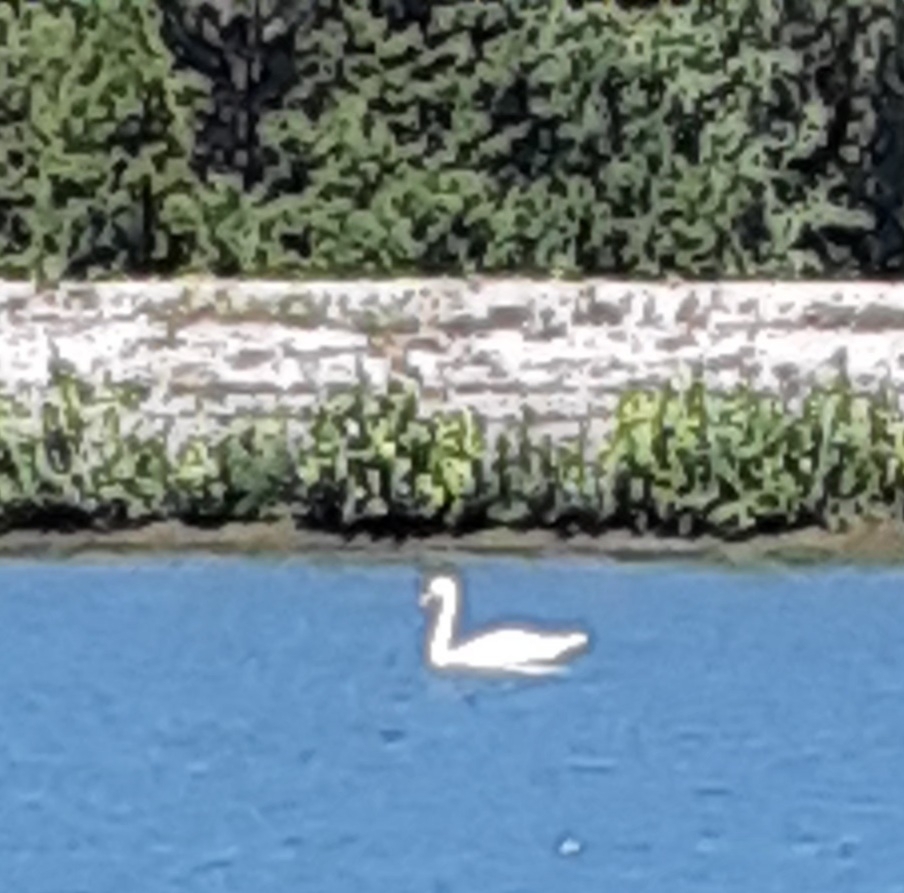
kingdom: Animalia
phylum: Chordata
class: Aves
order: Anseriformes
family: Anatidae
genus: Cygnus
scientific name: Cygnus olor
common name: Mute swan
